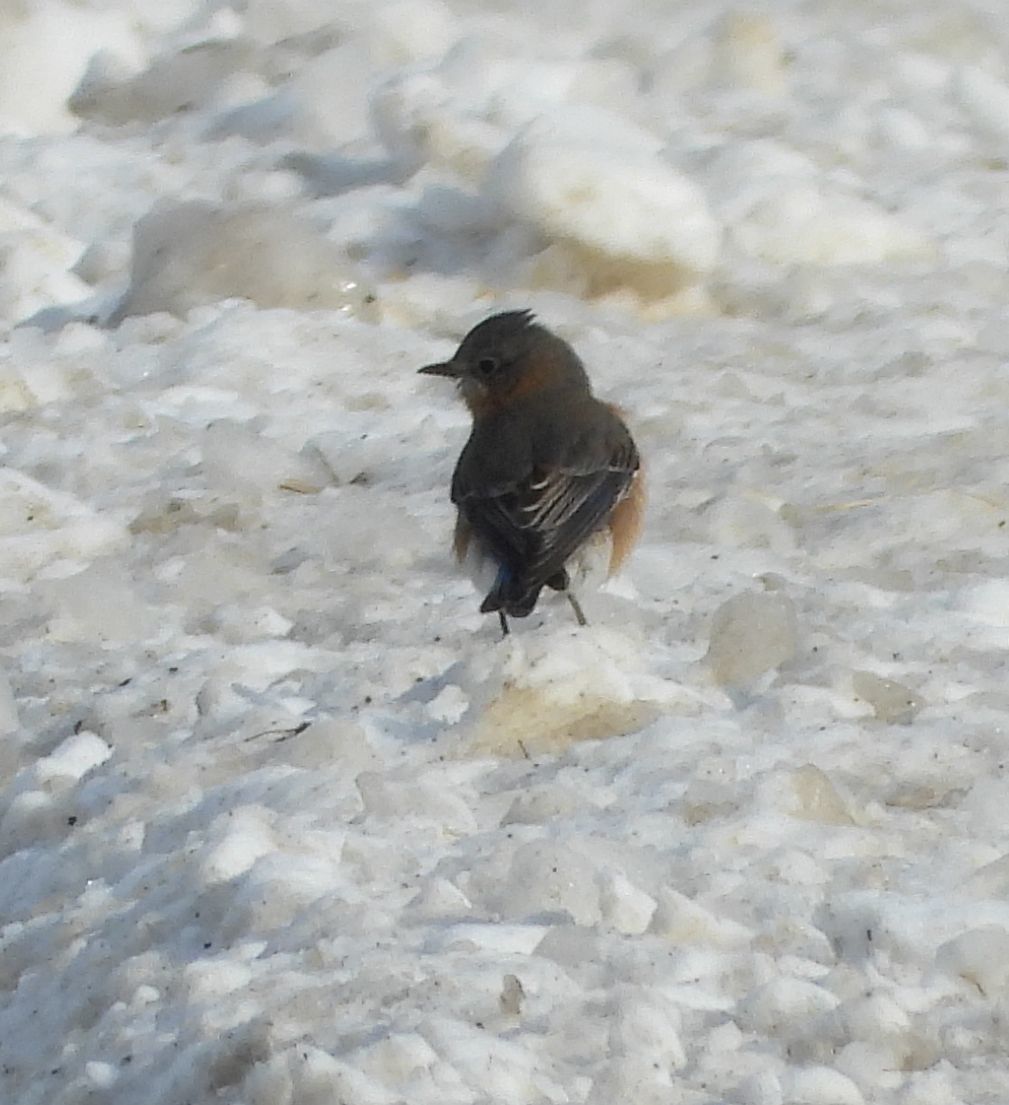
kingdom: Animalia
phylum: Chordata
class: Aves
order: Passeriformes
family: Turdidae
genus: Sialia
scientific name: Sialia sialis
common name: Eastern bluebird
